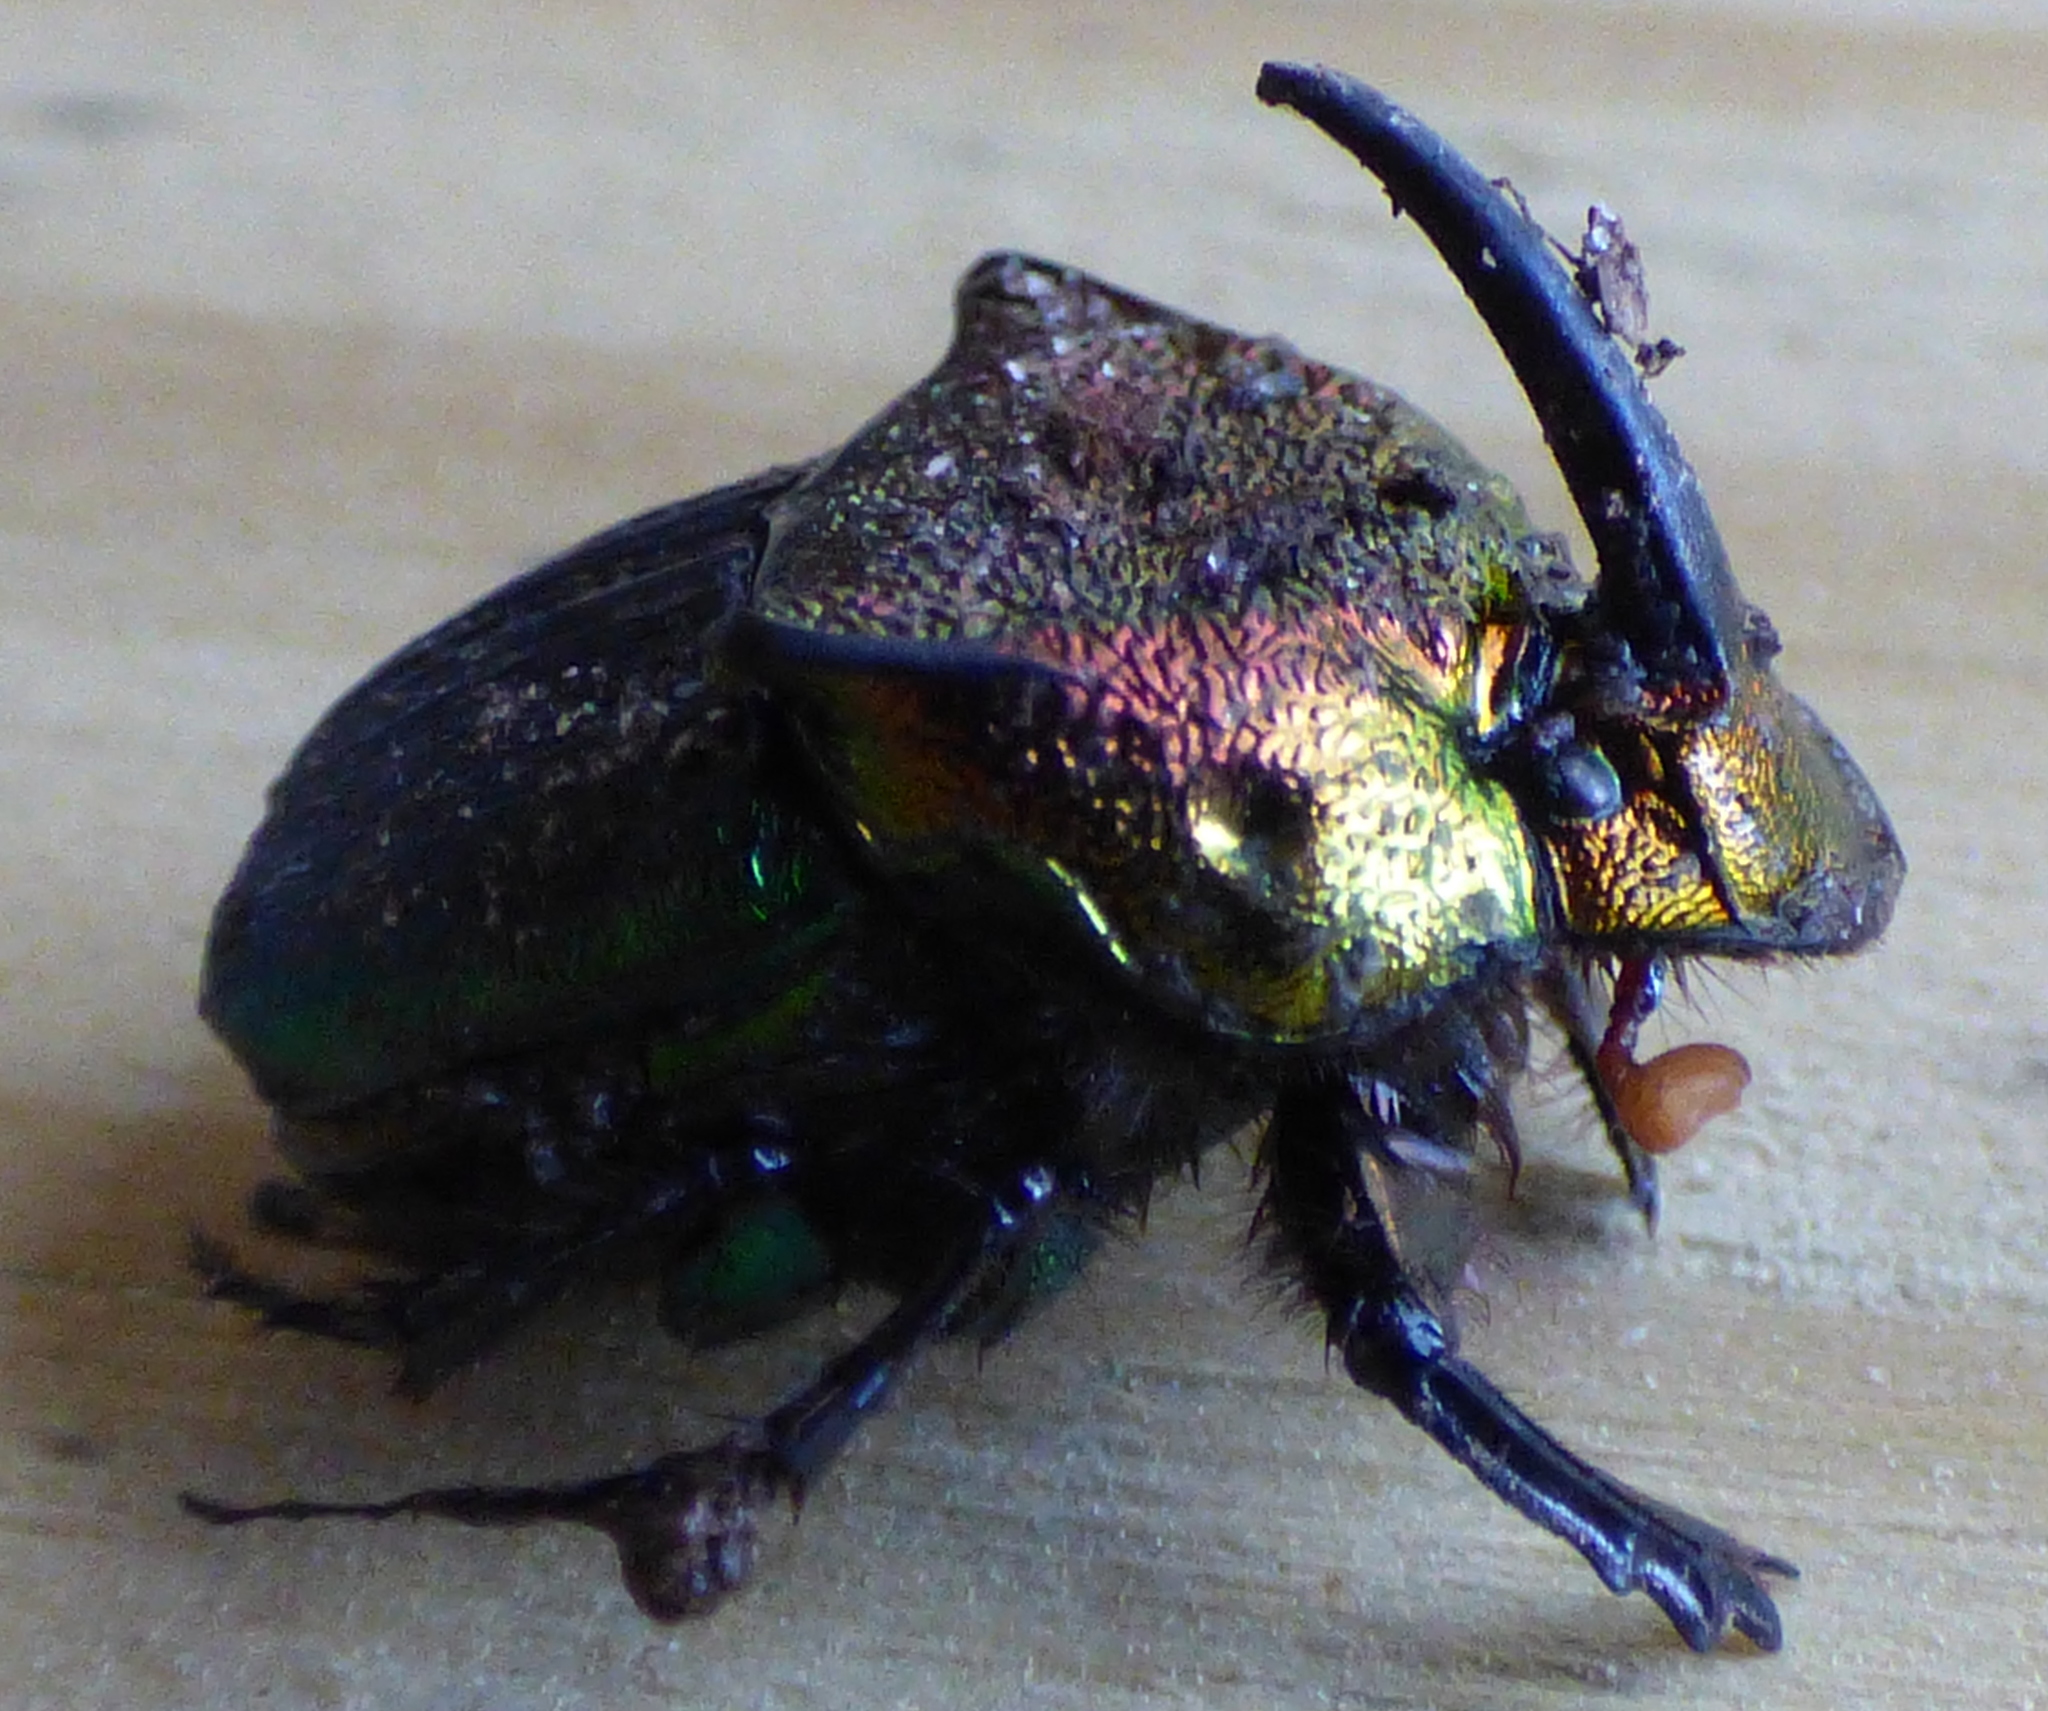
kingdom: Animalia
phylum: Arthropoda
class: Insecta
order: Coleoptera
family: Scarabaeidae
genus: Phanaeus
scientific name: Phanaeus vindex
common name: Rainbow scarab
